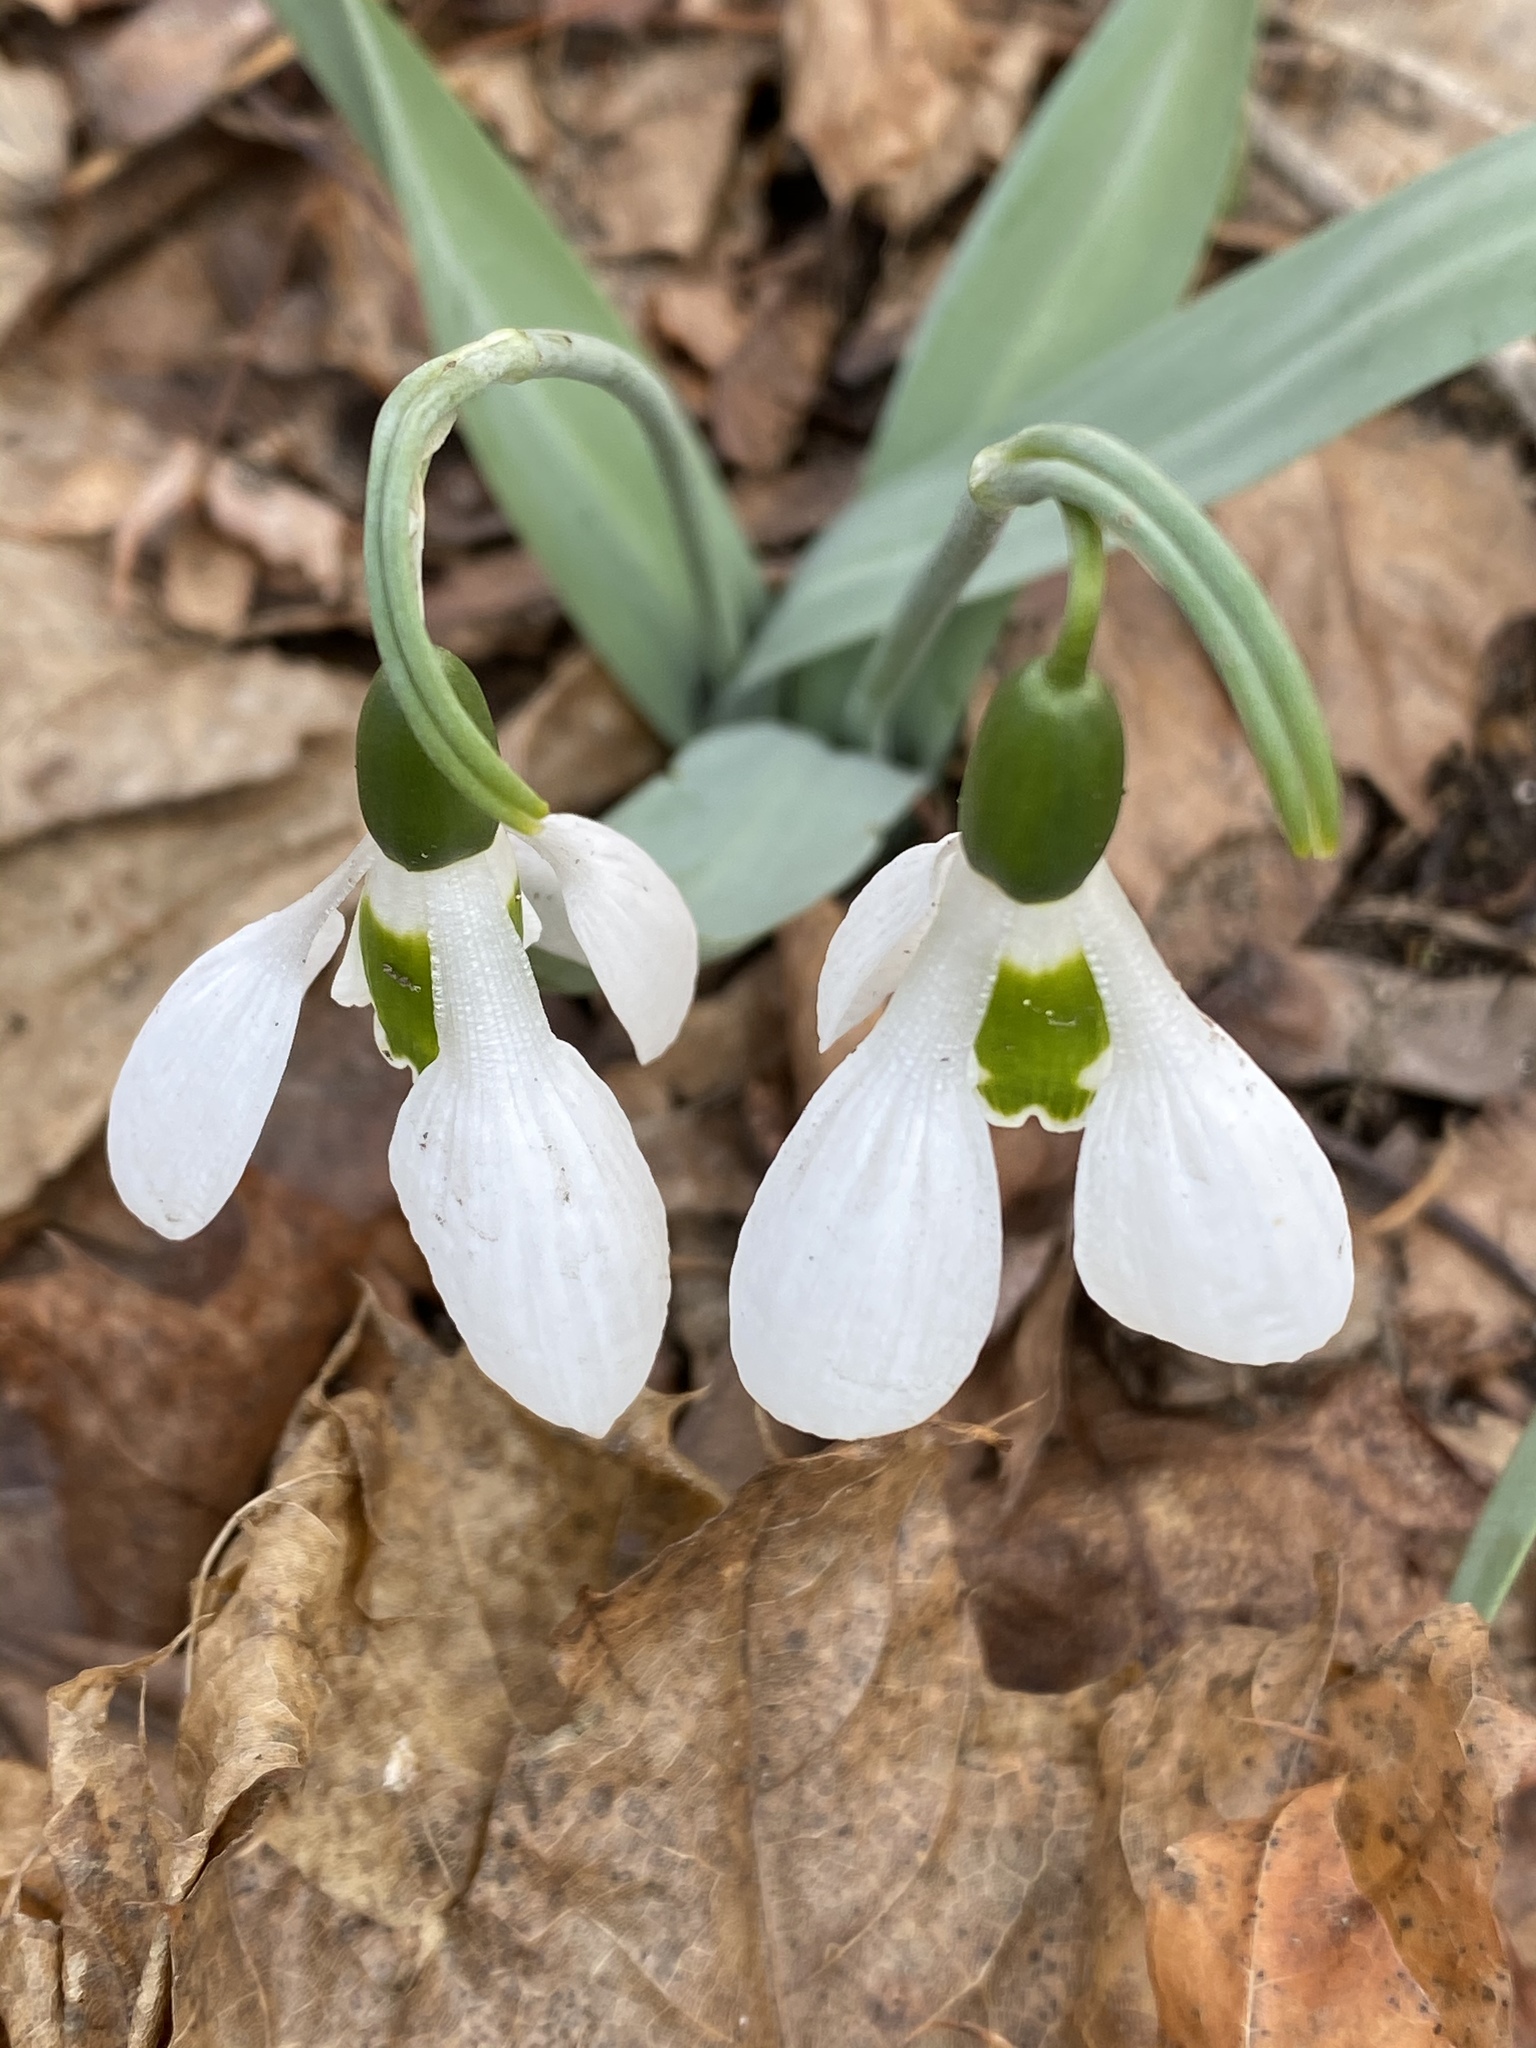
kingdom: Plantae
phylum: Tracheophyta
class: Liliopsida
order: Asparagales
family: Amaryllidaceae
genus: Galanthus
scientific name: Galanthus elwesii
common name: Greater snowdrop
